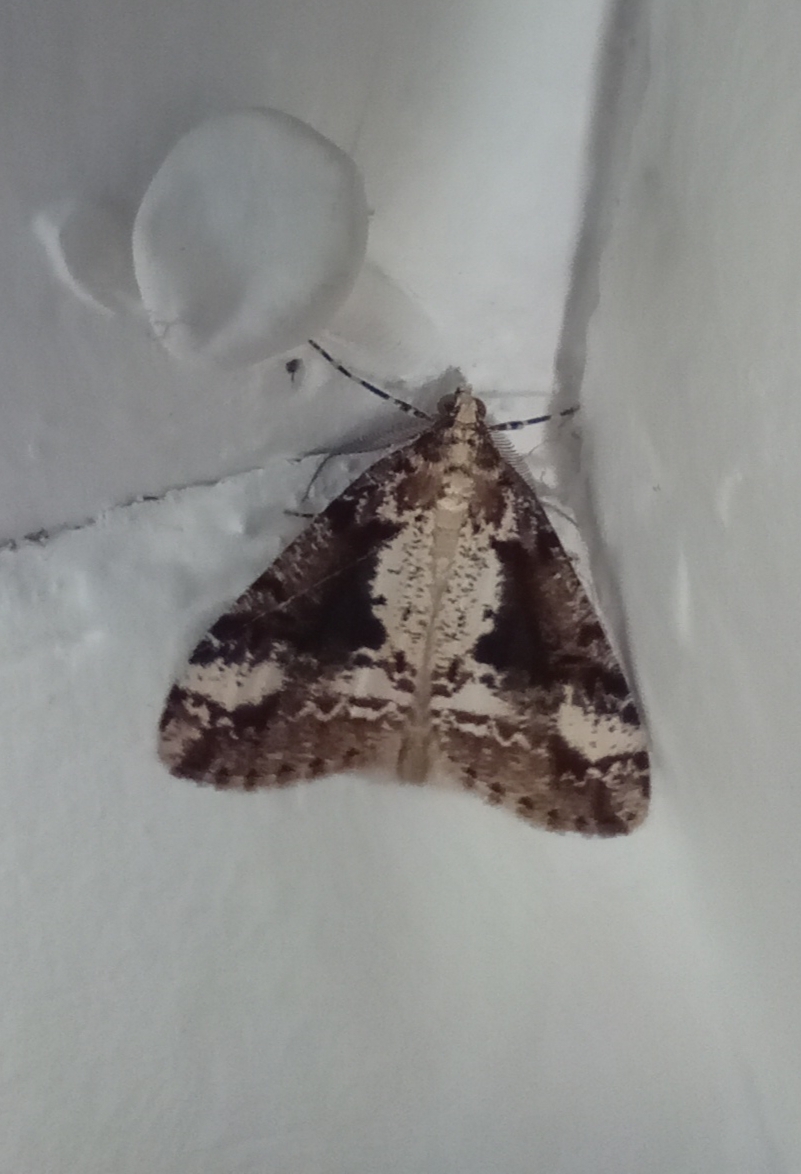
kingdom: Animalia
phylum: Arthropoda
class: Insecta
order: Lepidoptera
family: Geometridae
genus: Pseudocoremia
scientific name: Pseudocoremia leucelaea
